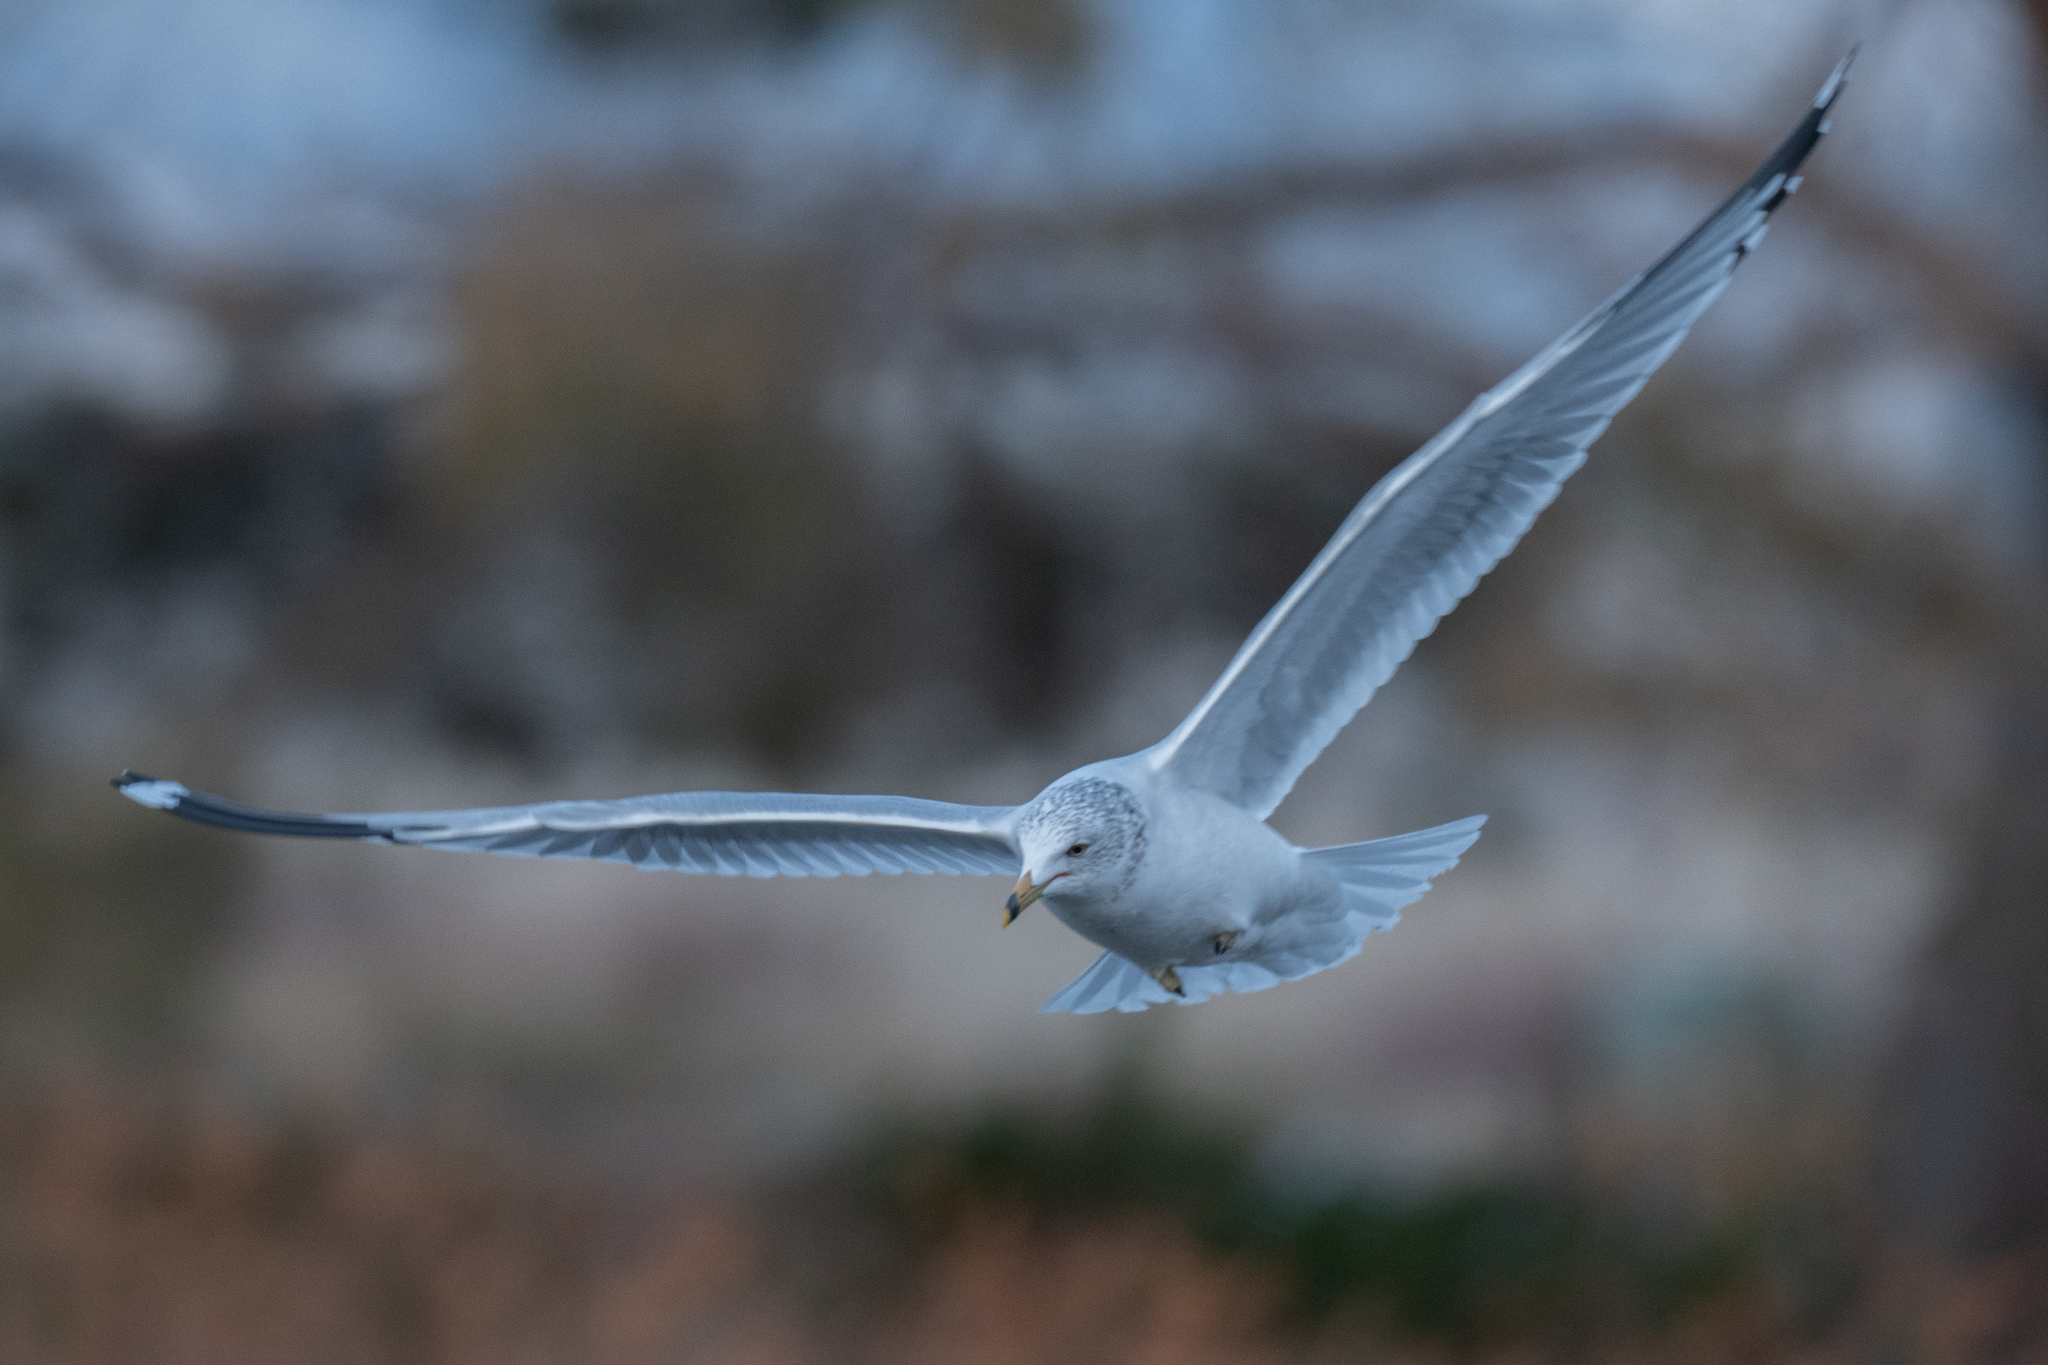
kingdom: Animalia
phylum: Chordata
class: Aves
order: Charadriiformes
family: Laridae
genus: Larus
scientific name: Larus delawarensis
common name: Ring-billed gull
